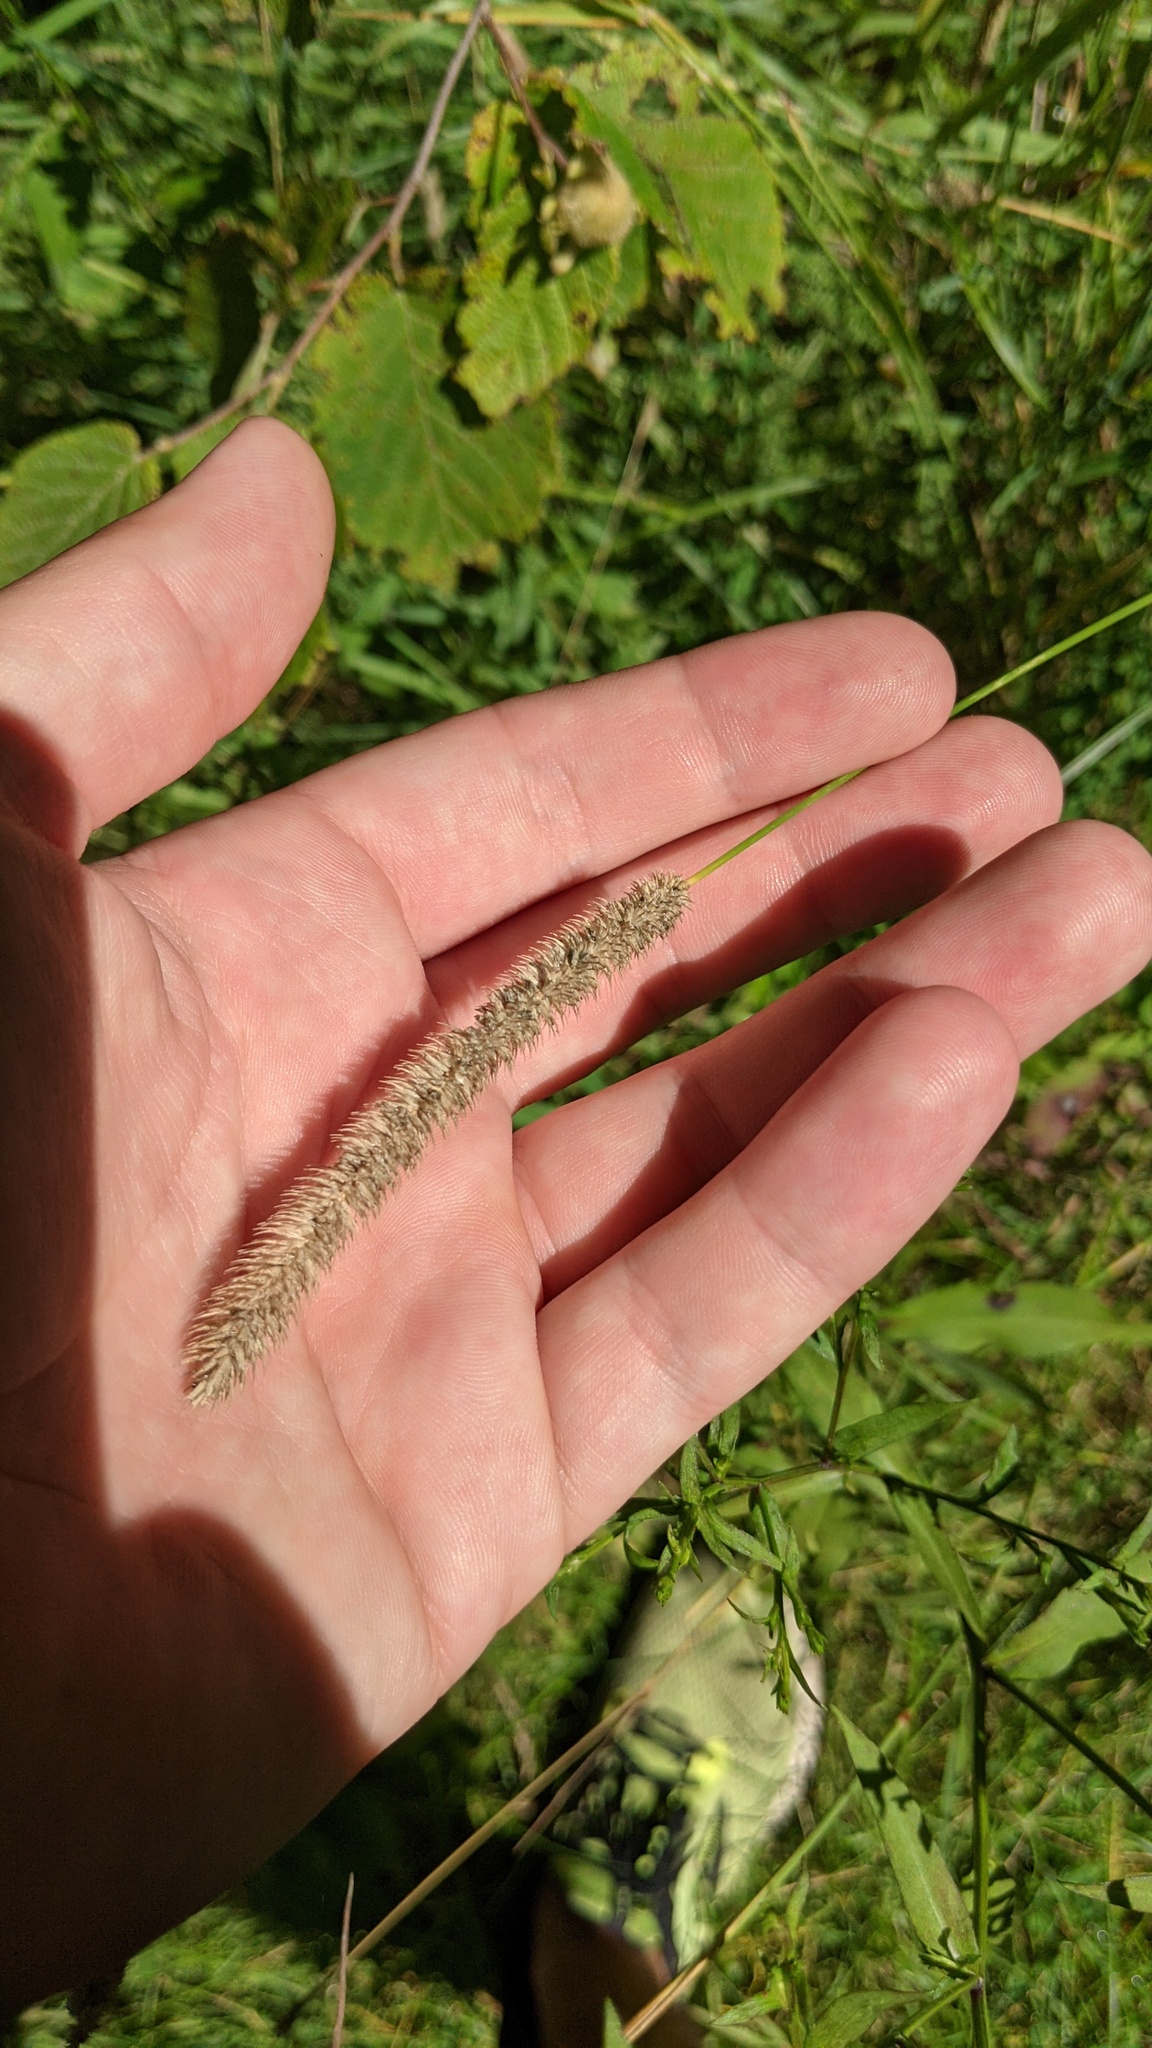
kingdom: Plantae
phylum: Tracheophyta
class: Liliopsida
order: Poales
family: Poaceae
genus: Phleum
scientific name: Phleum pratense
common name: Timothy grass
